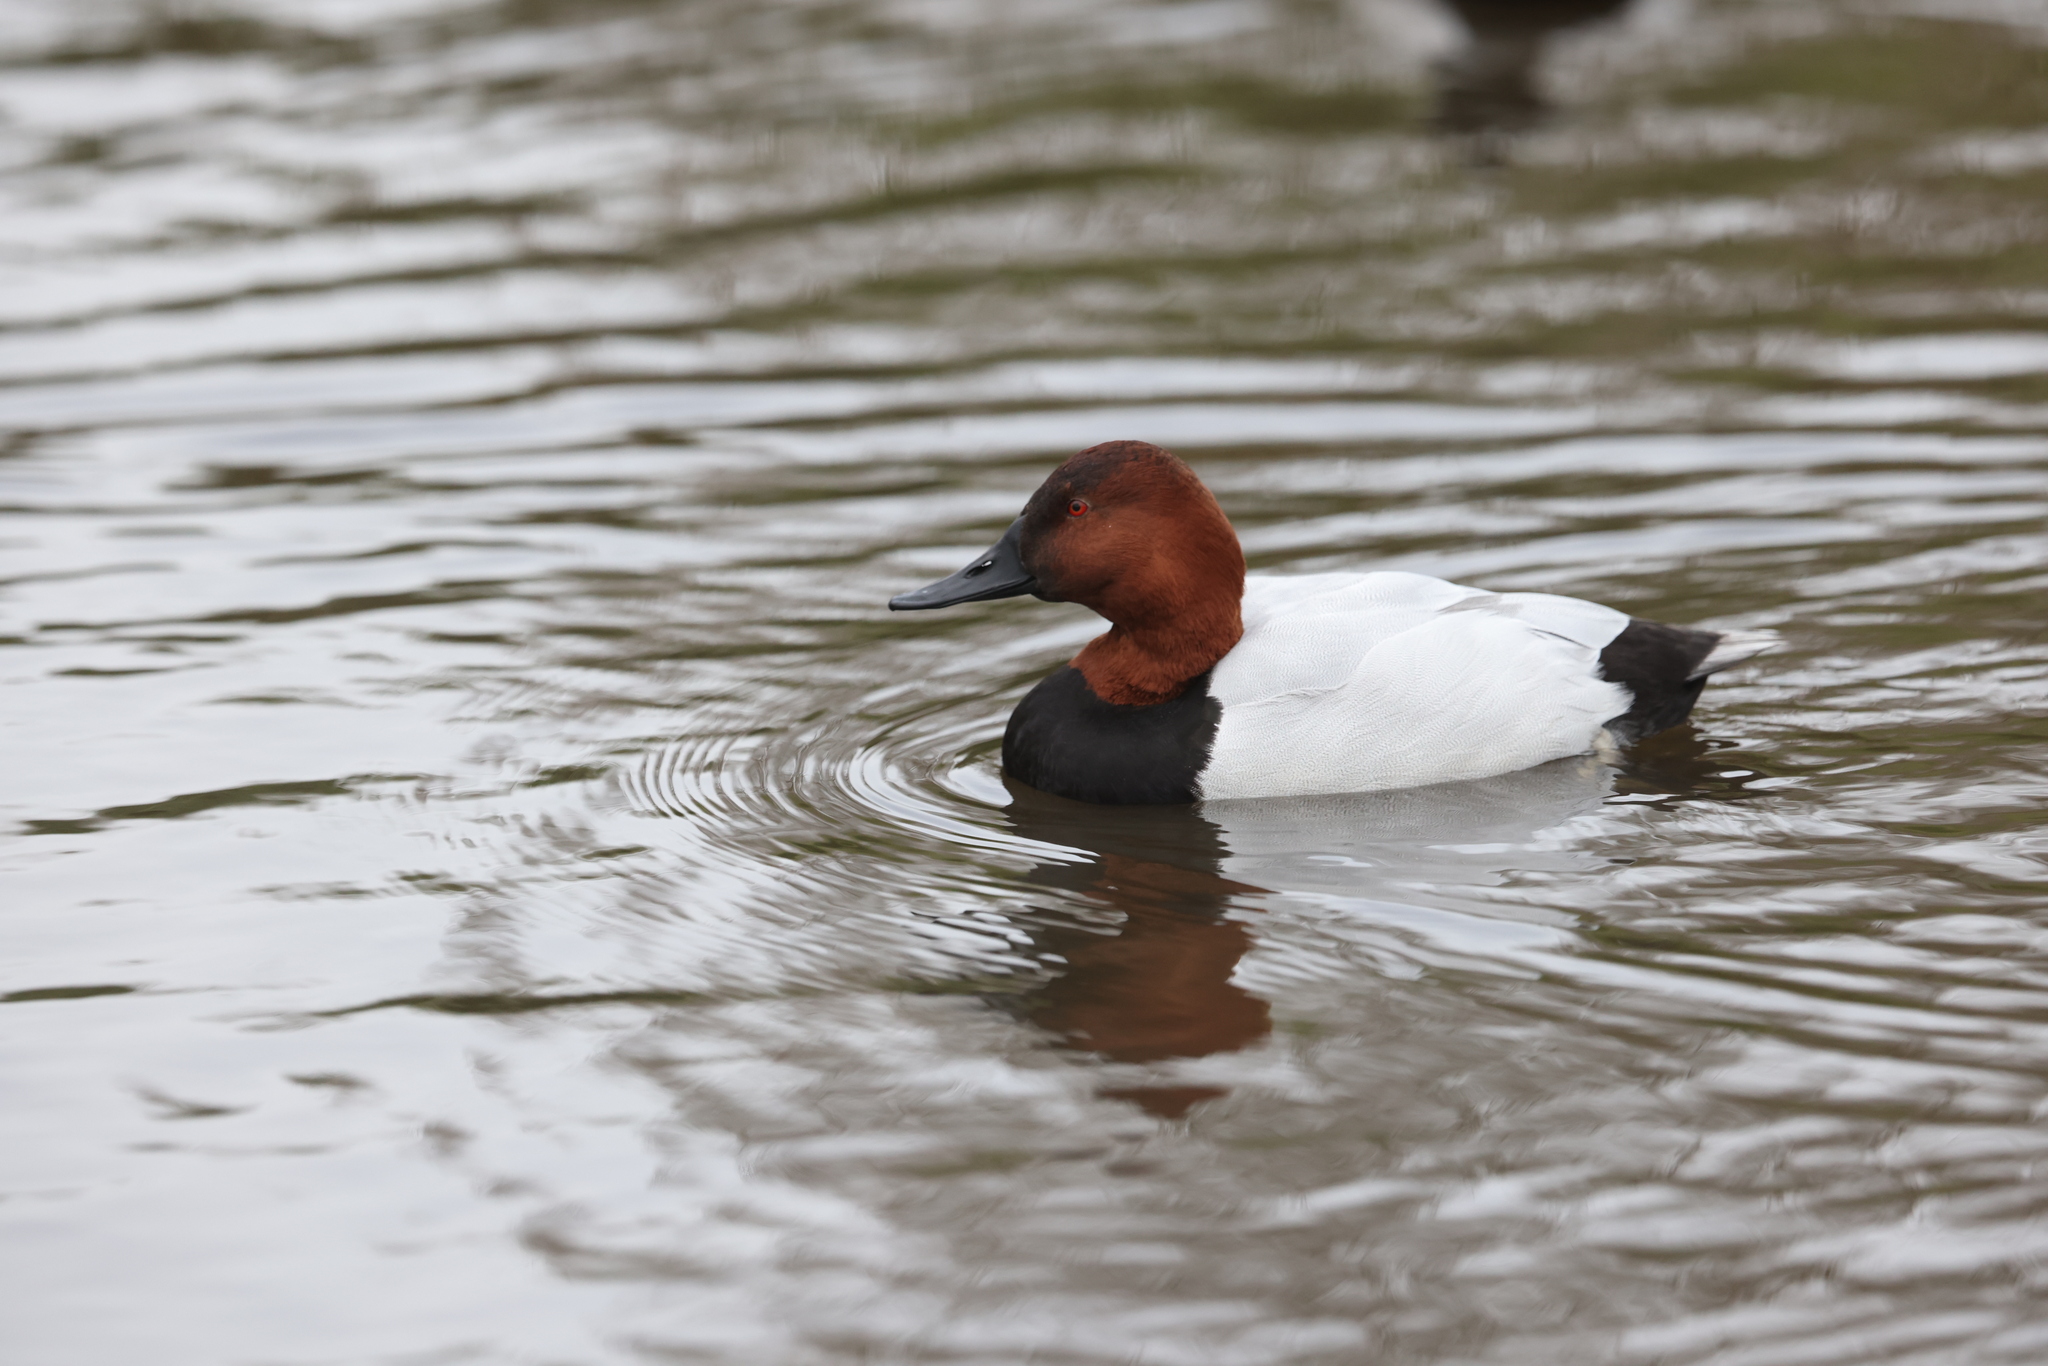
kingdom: Animalia
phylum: Chordata
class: Aves
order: Anseriformes
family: Anatidae
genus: Aythya
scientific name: Aythya ferina
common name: Common pochard
